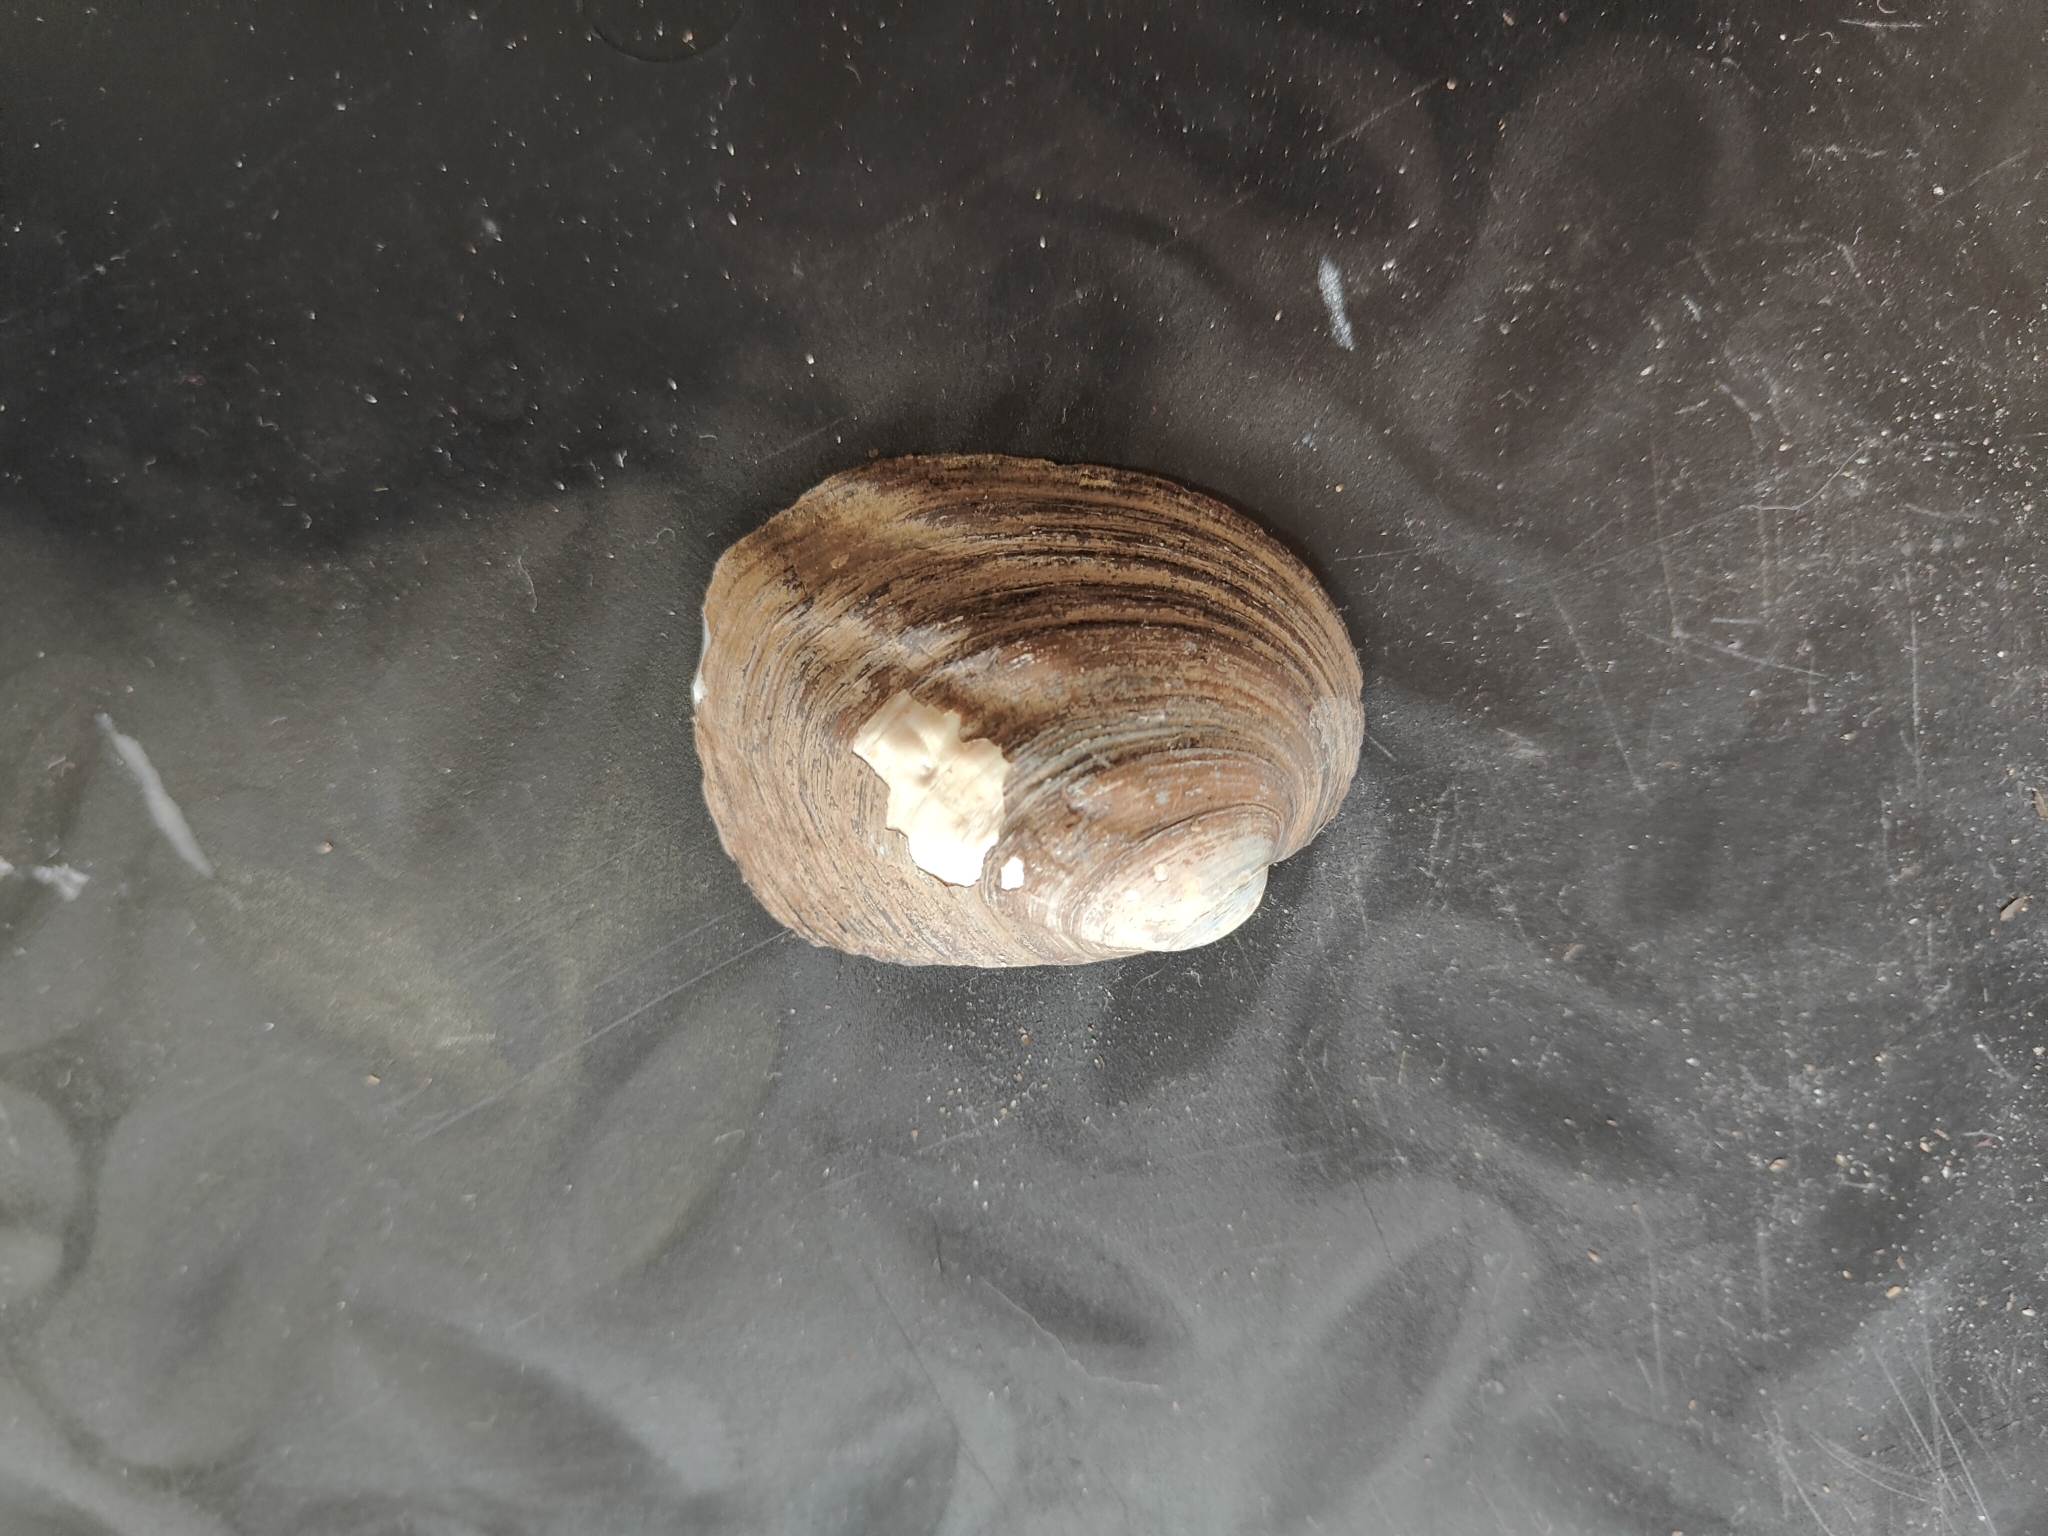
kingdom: Animalia
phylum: Mollusca
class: Bivalvia
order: Unionida
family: Unionidae
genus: Amblema
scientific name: Amblema plicata
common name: Threeridge
